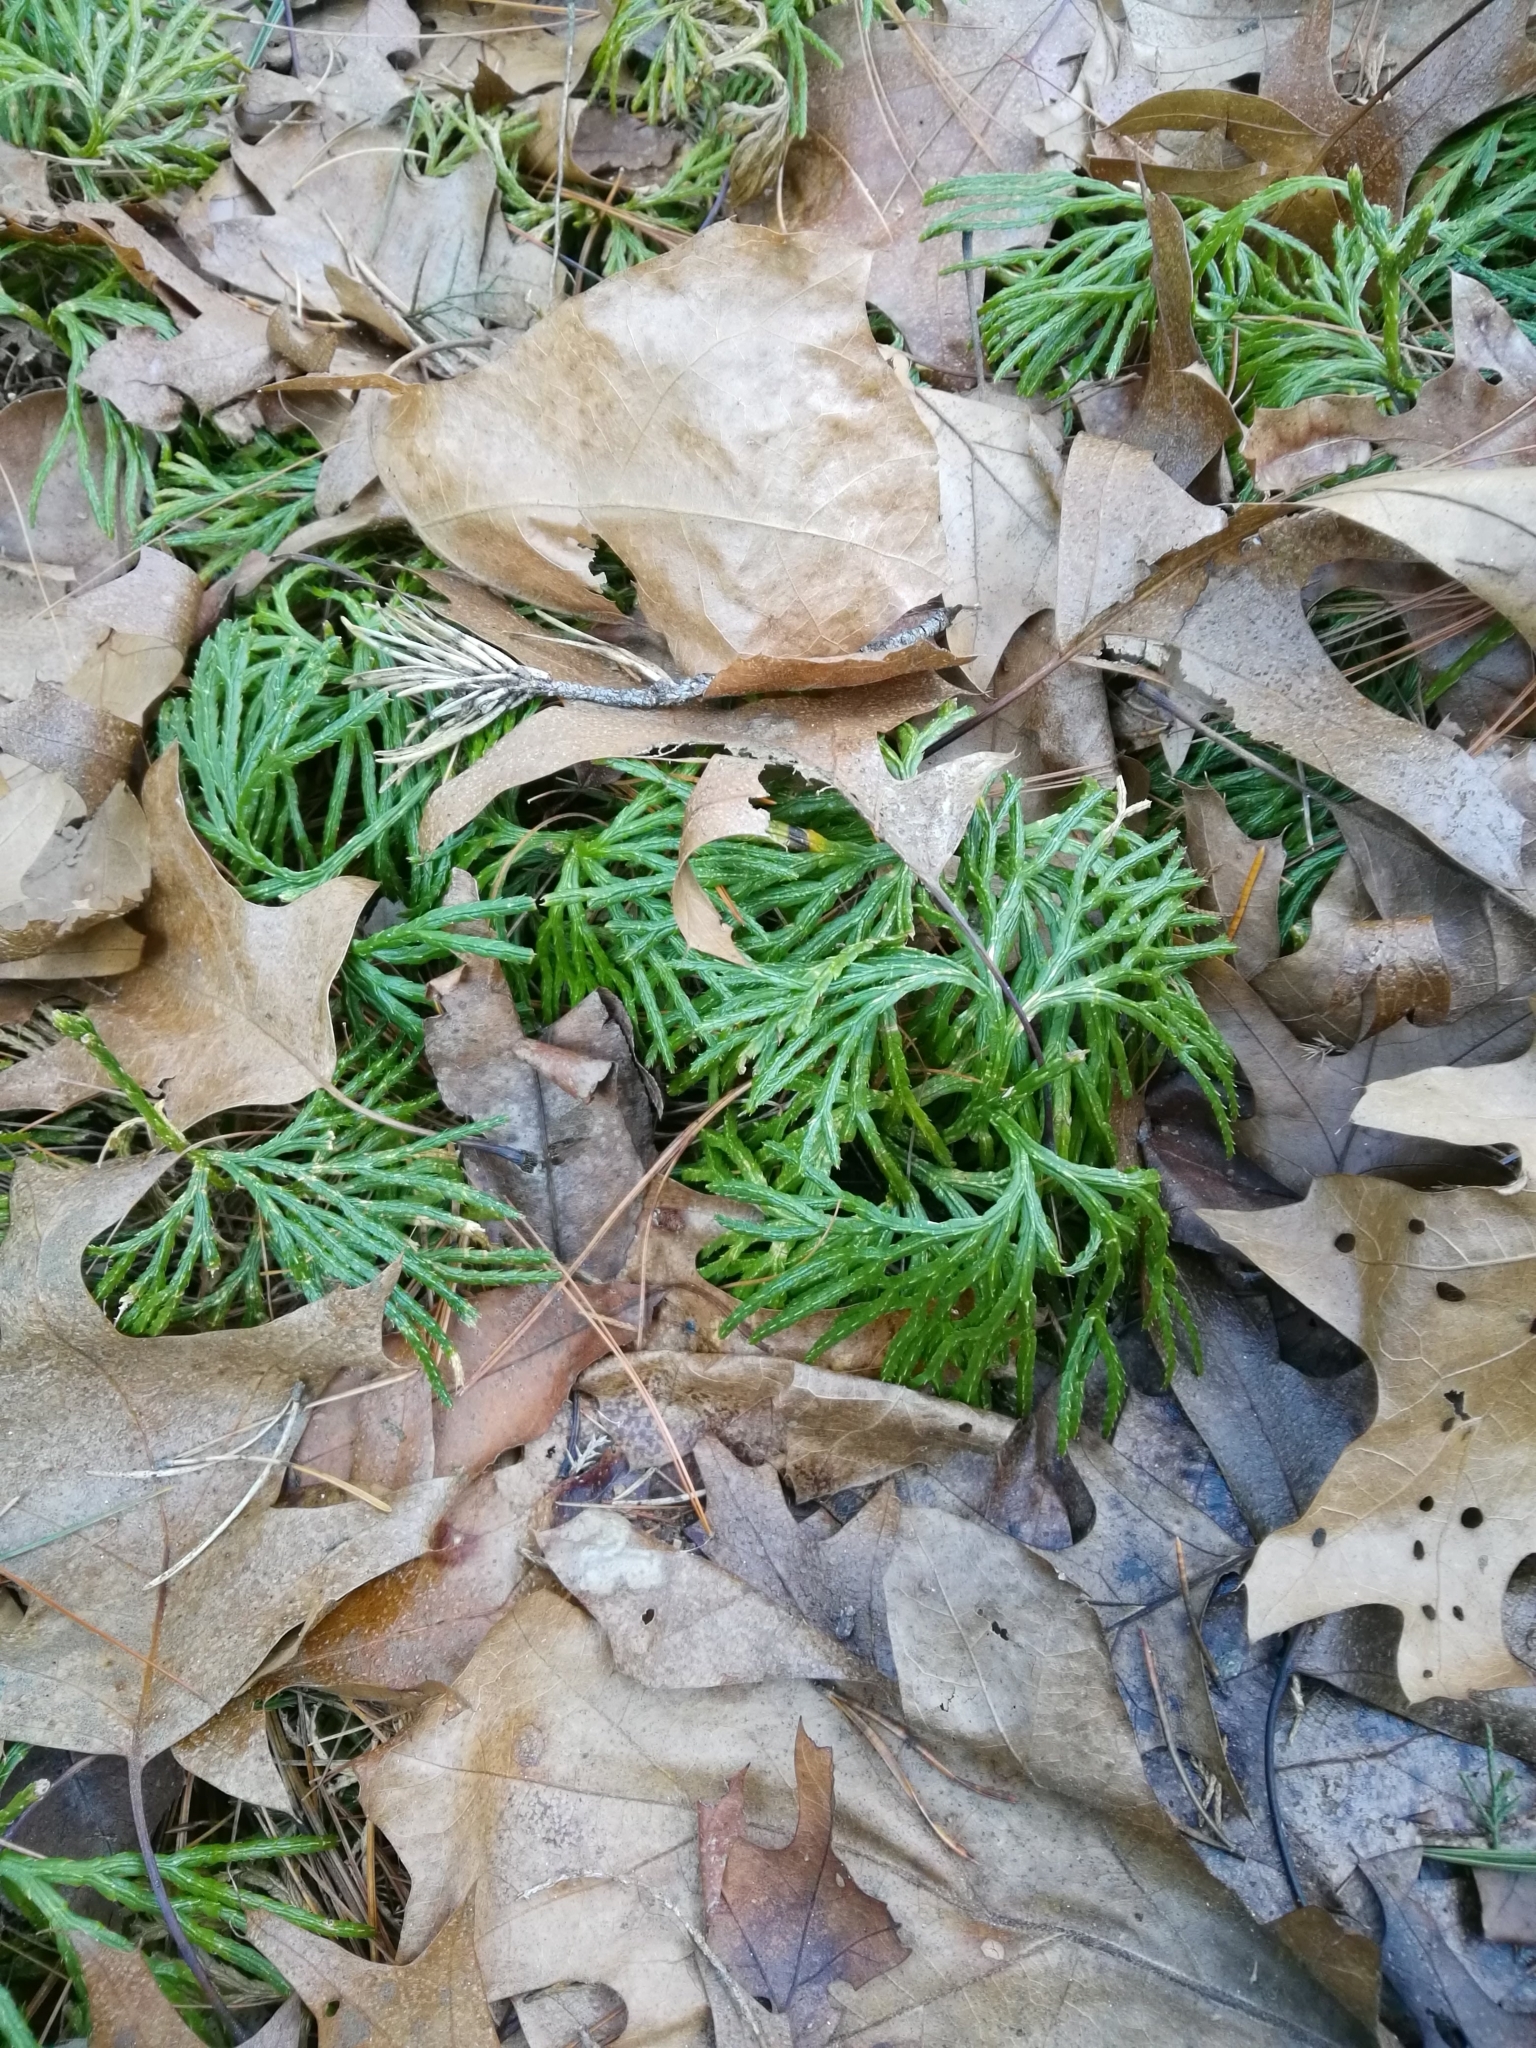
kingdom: Plantae
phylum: Tracheophyta
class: Lycopodiopsida
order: Lycopodiales
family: Lycopodiaceae
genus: Diphasiastrum
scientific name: Diphasiastrum digitatum
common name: Southern running-pine
